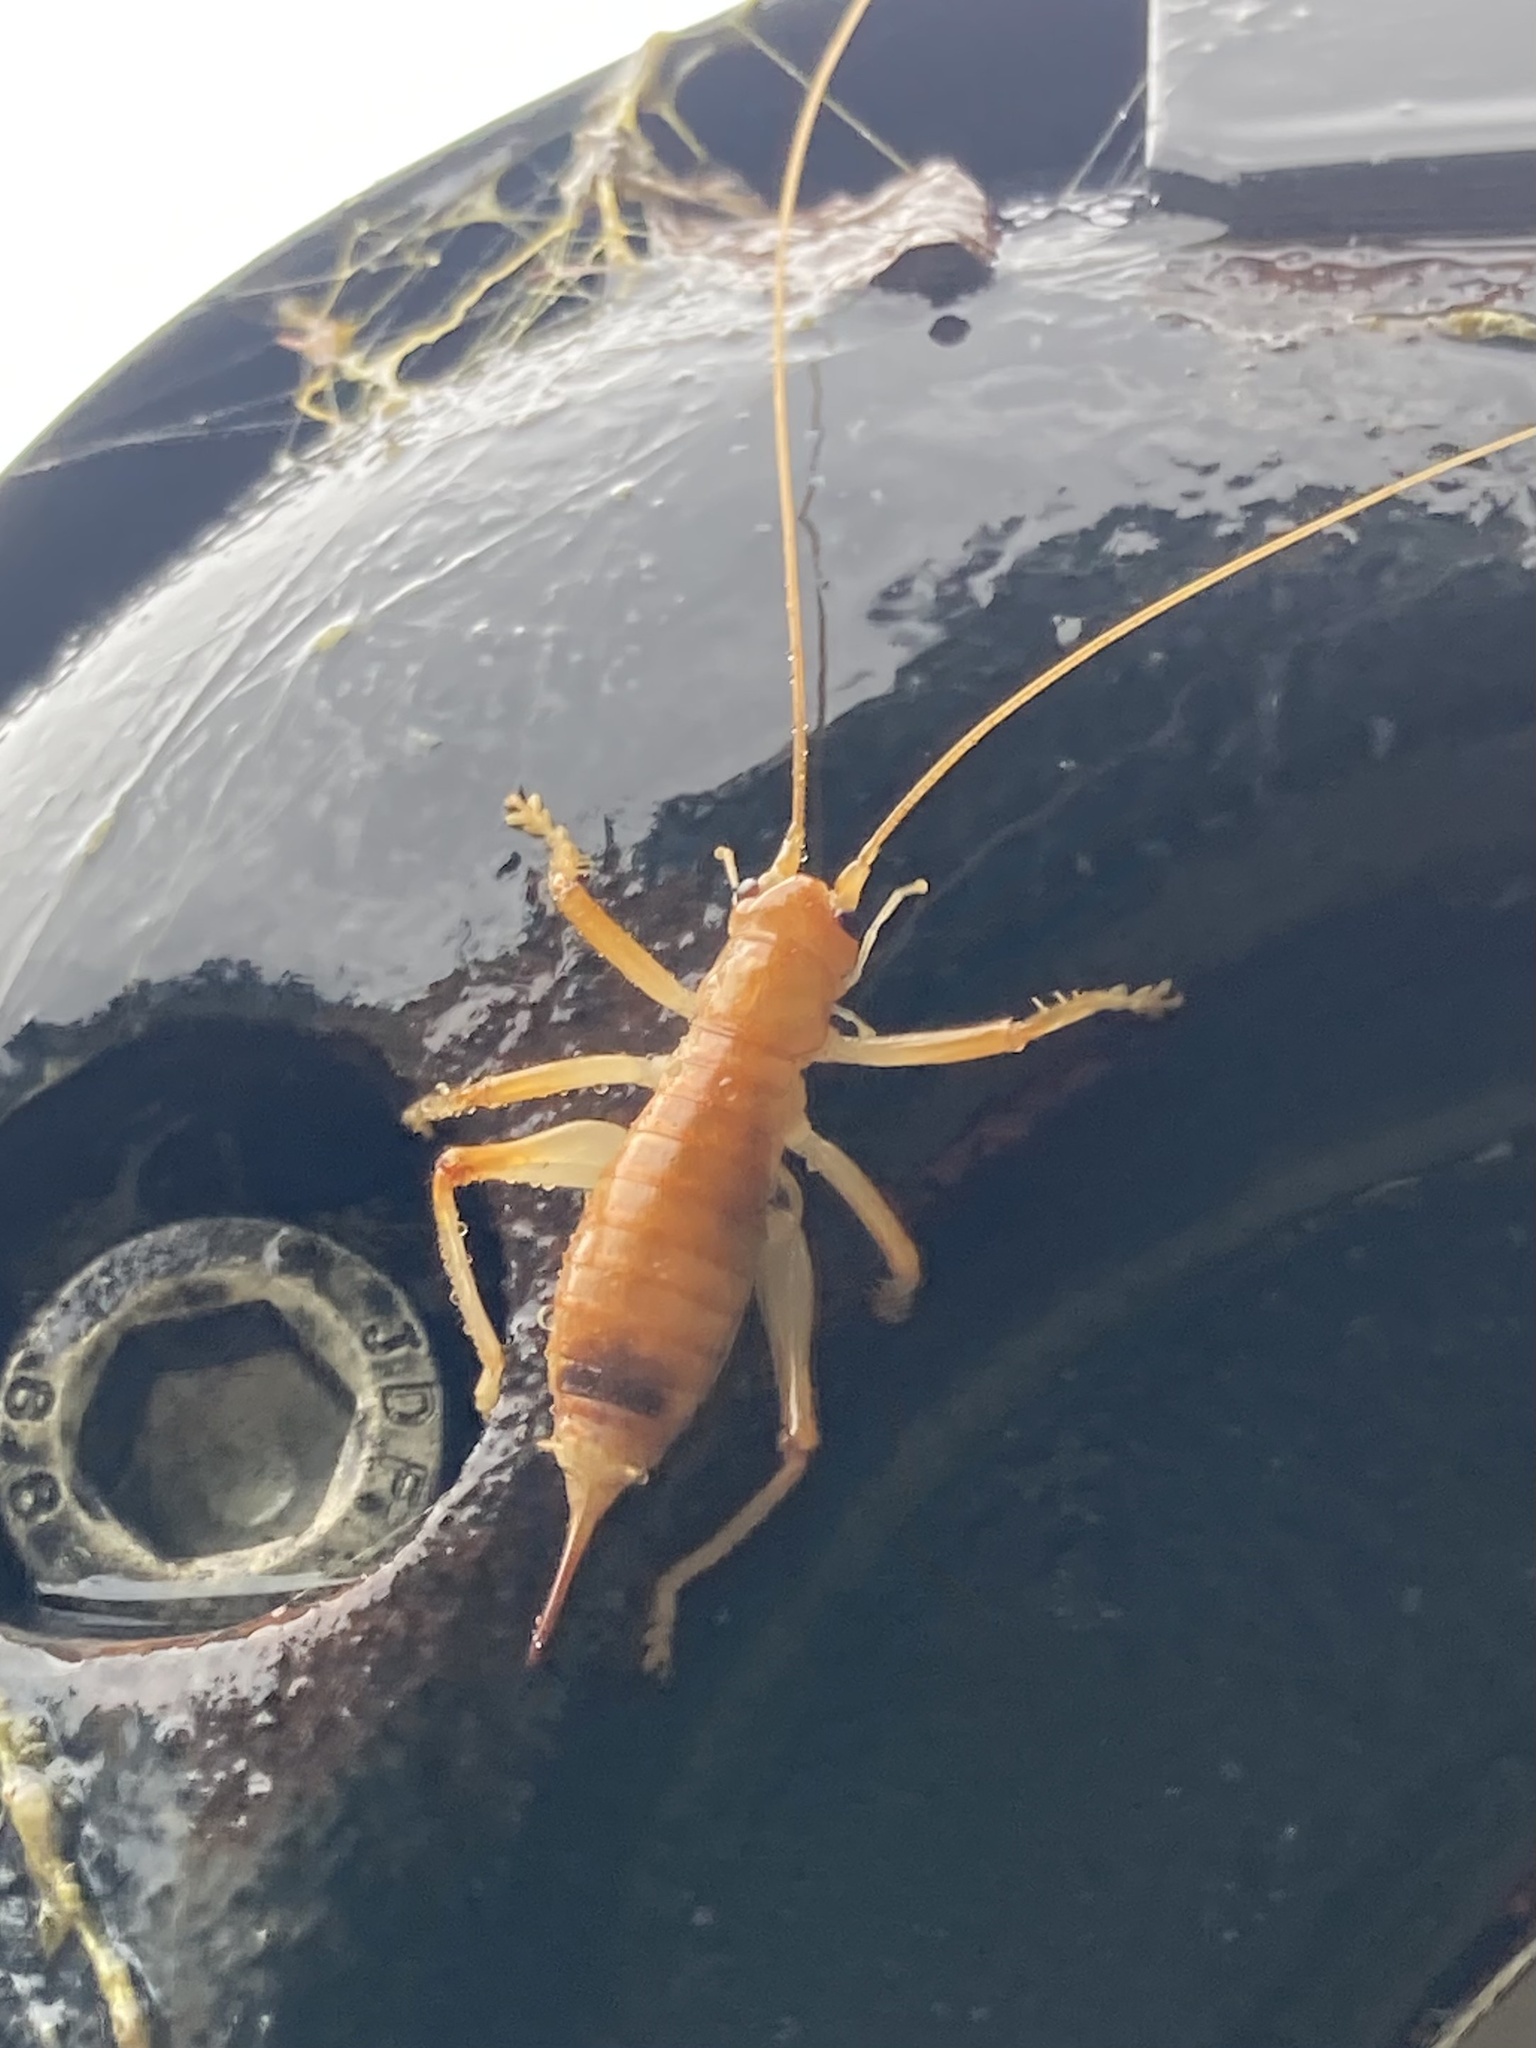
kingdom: Animalia
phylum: Arthropoda
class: Insecta
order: Orthoptera
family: Gryllacrididae
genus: Camptonotus
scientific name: Camptonotus carolinensis
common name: Carolina leaf-roller
